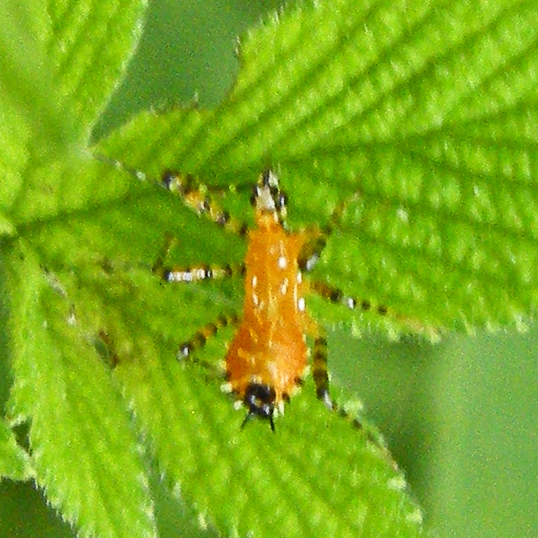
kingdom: Animalia
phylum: Arthropoda
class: Insecta
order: Hemiptera
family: Reduviidae
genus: Pselliopus
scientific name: Pselliopus barberi
